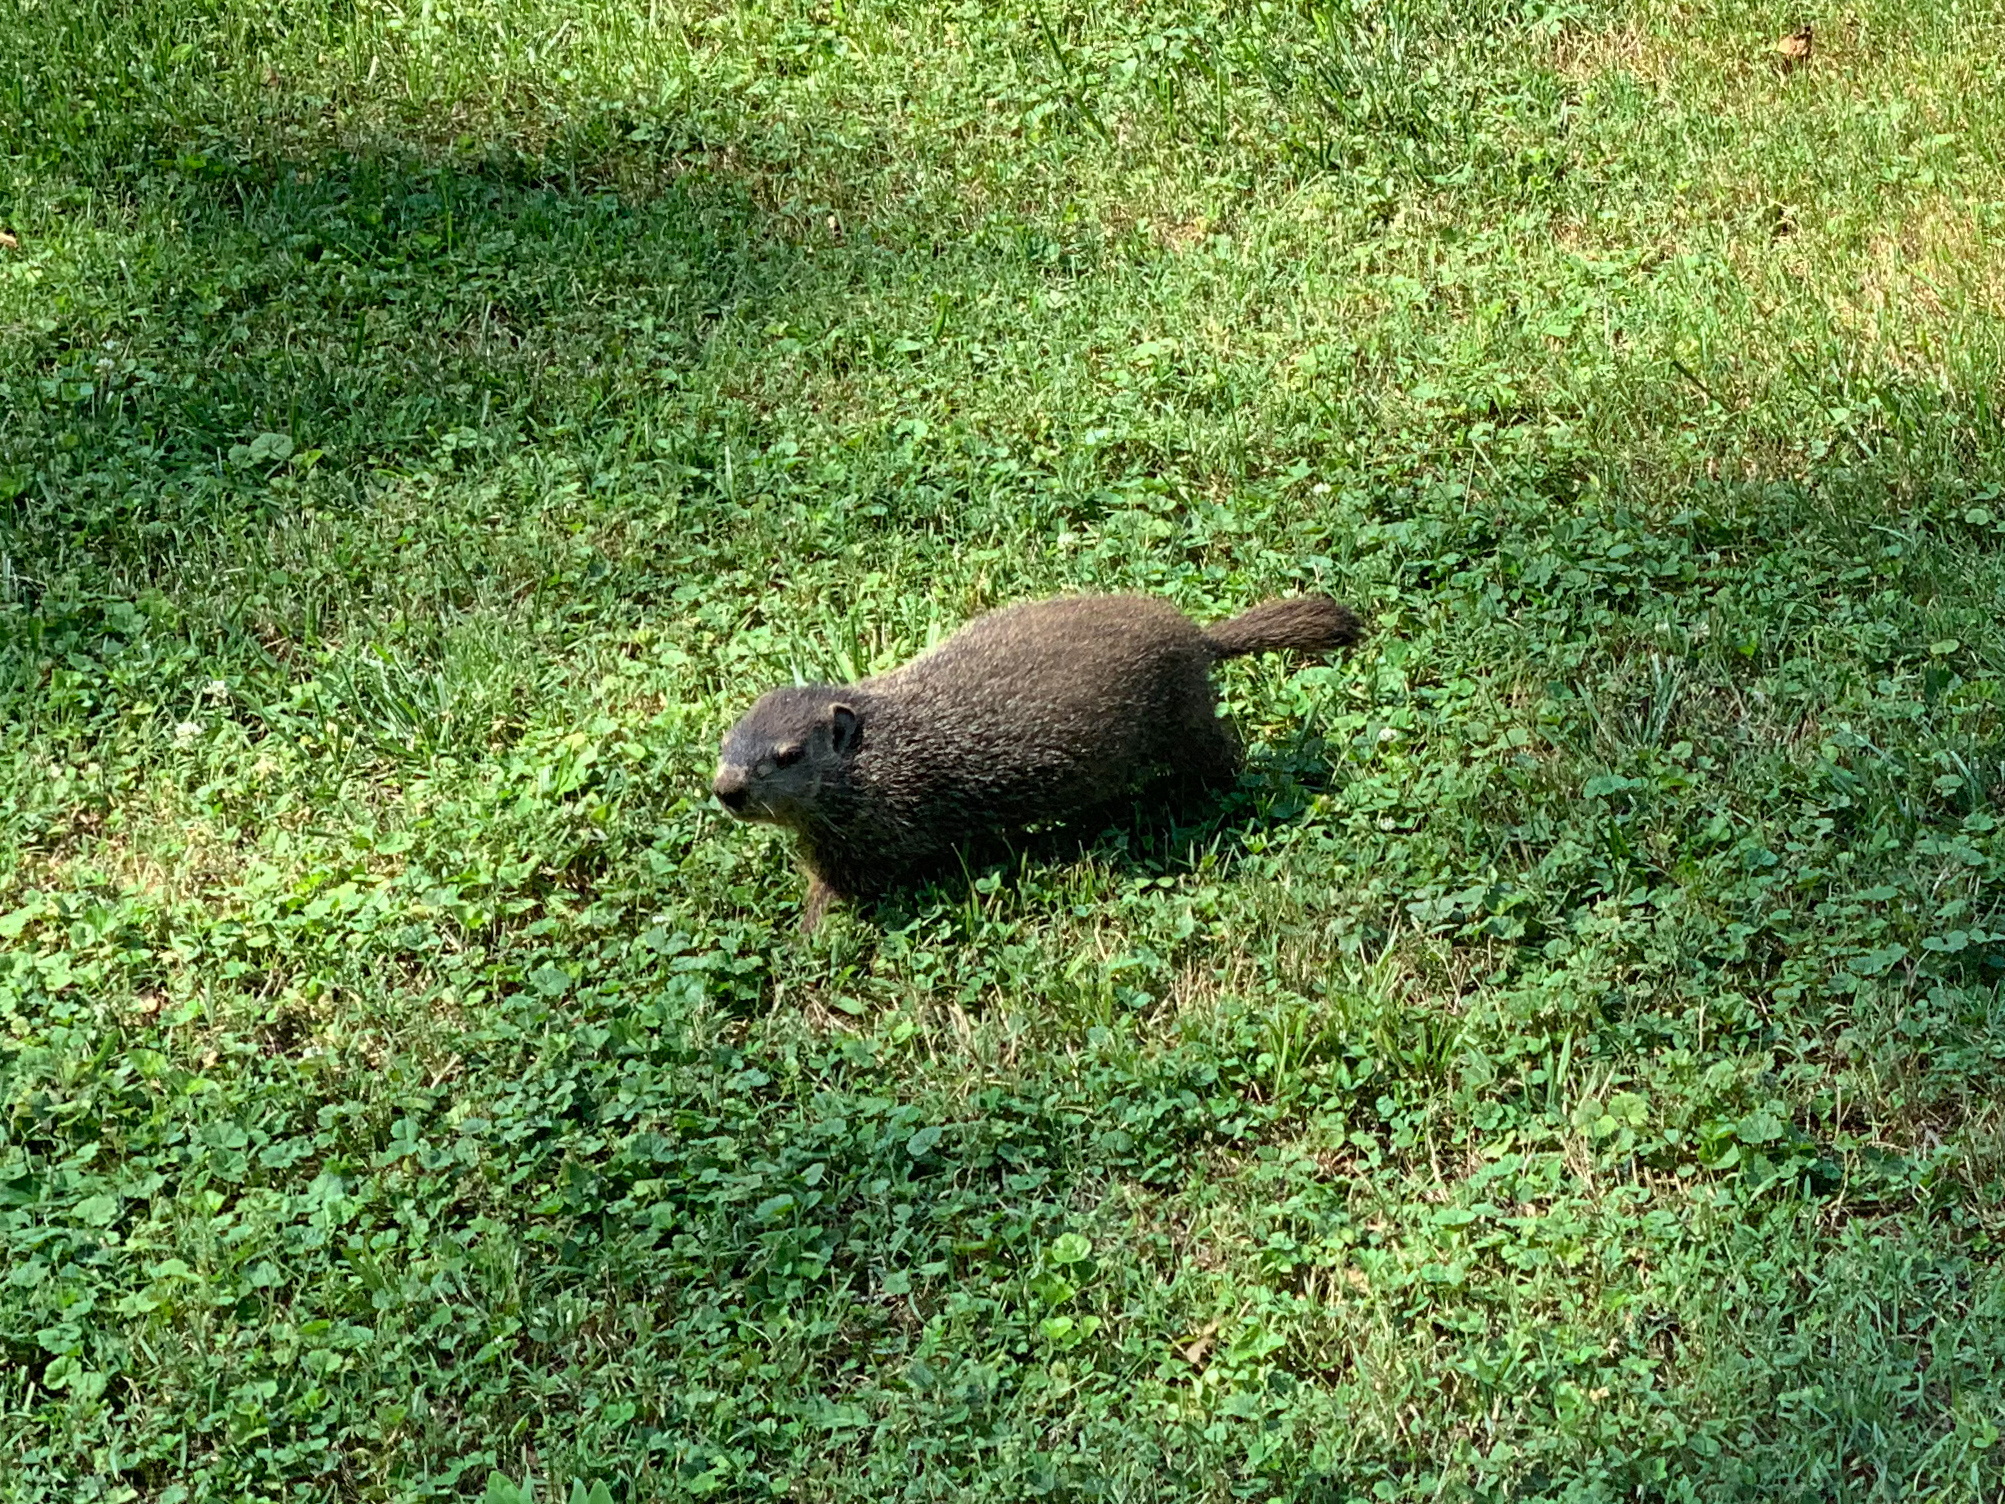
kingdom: Animalia
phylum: Chordata
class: Mammalia
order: Rodentia
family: Sciuridae
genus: Marmota
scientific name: Marmota monax
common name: Groundhog
